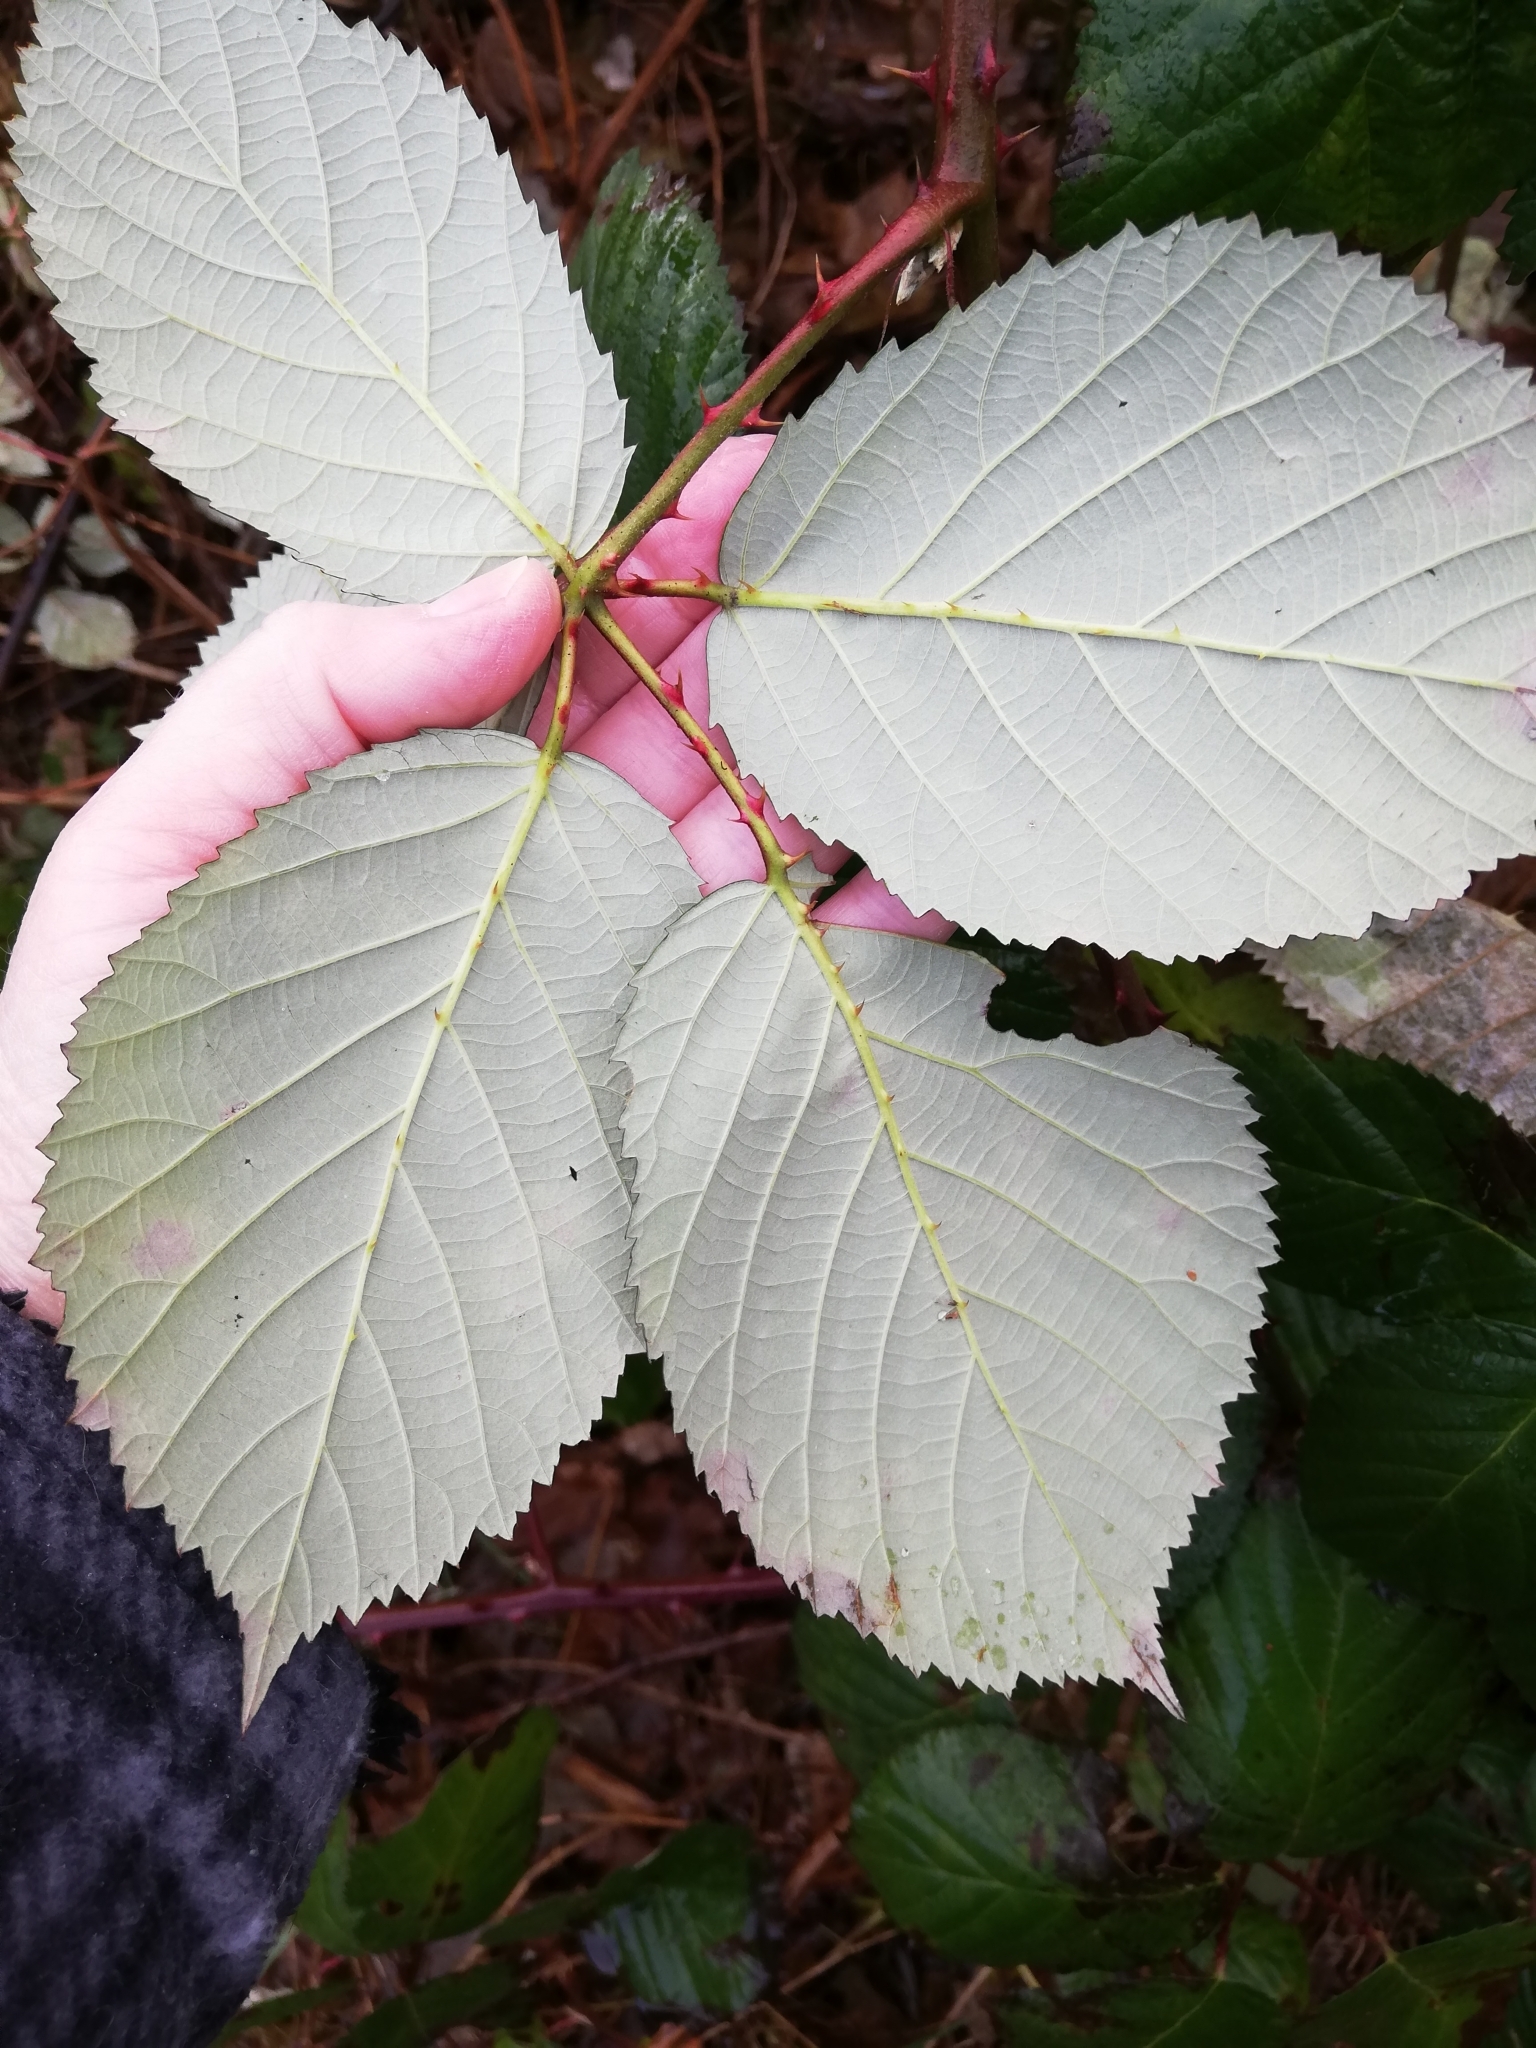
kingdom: Plantae
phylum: Tracheophyta
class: Magnoliopsida
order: Rosales
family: Rosaceae
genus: Rubus
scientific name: Rubus bifrons
